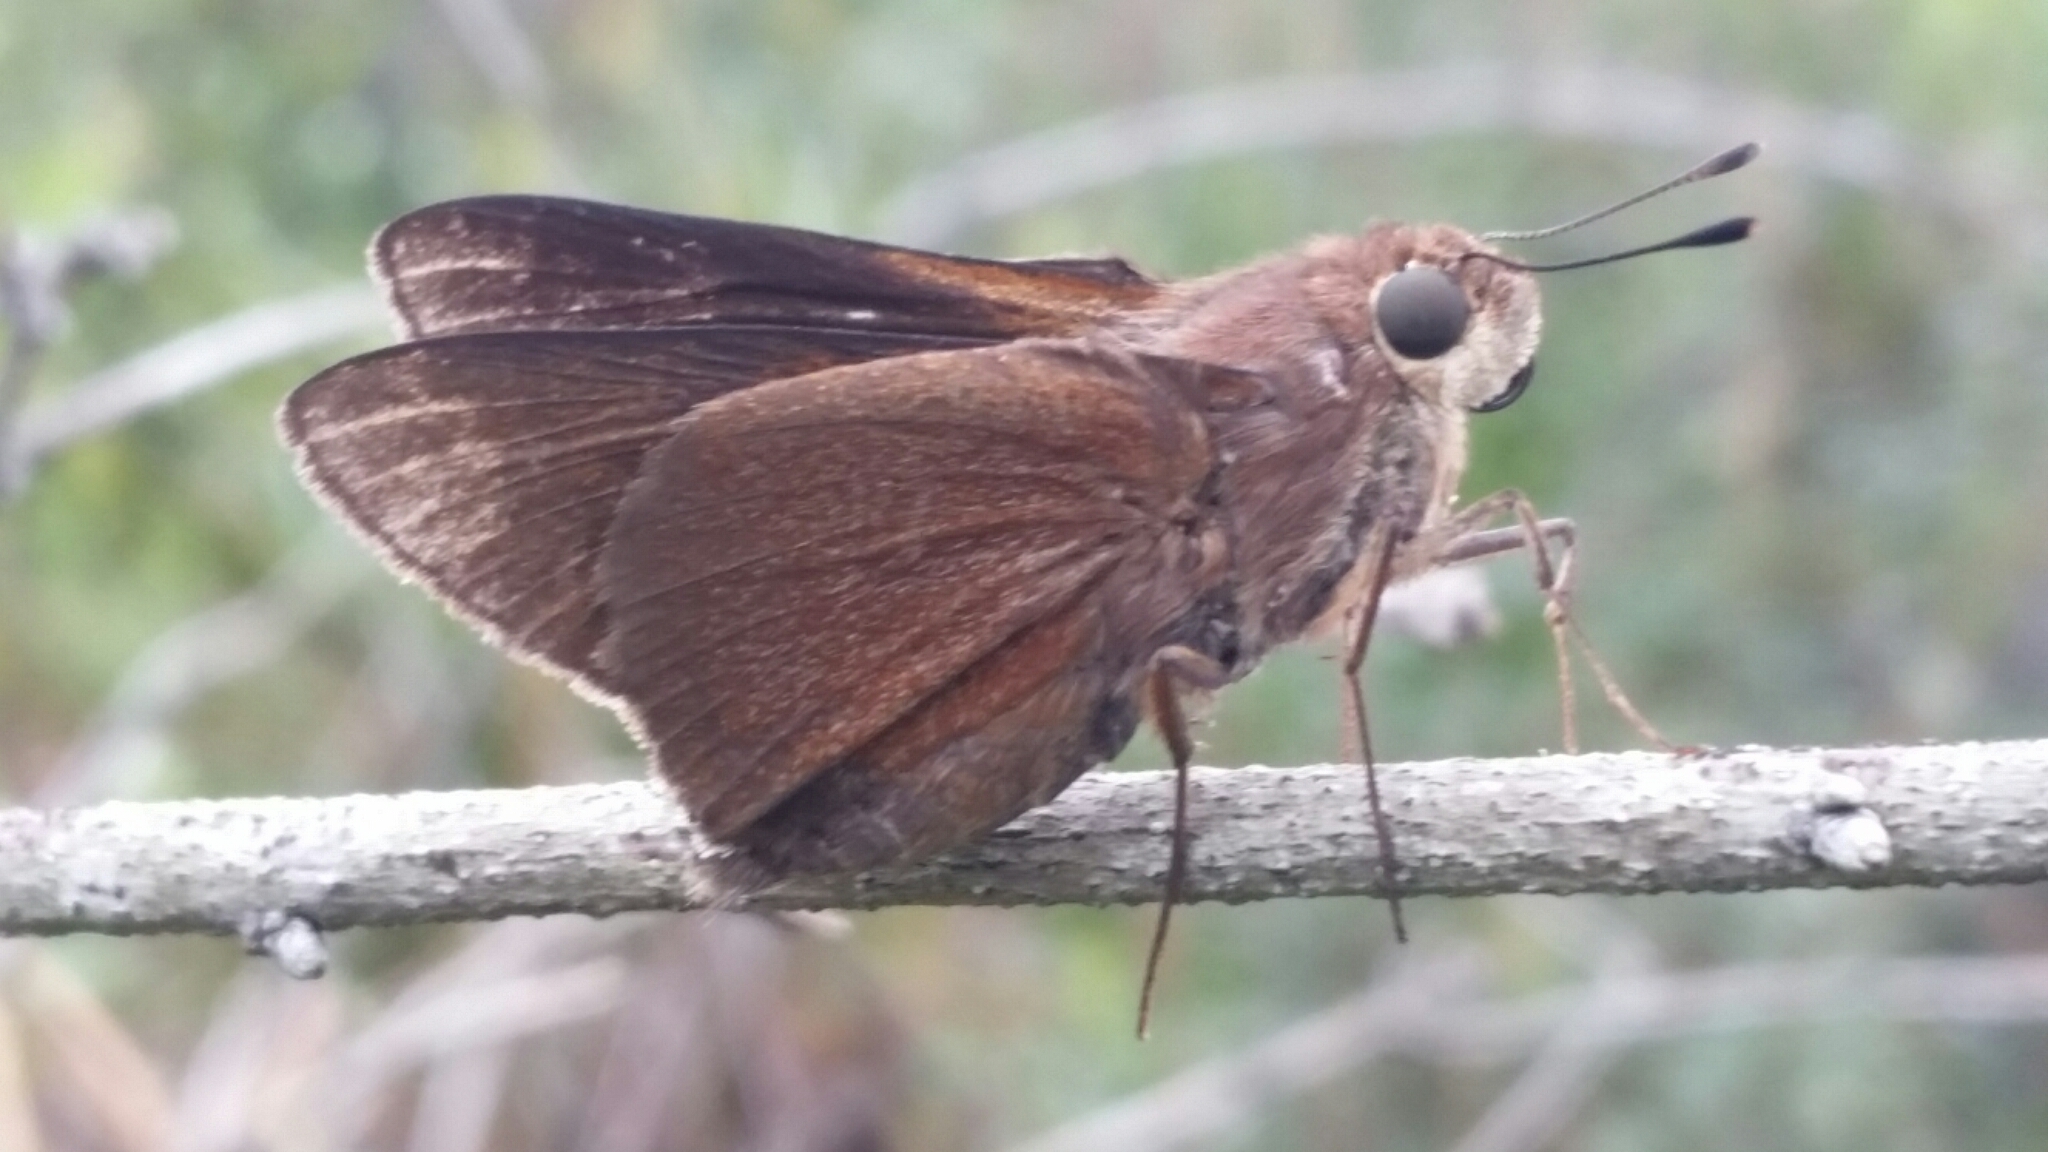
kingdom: Animalia
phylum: Arthropoda
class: Insecta
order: Lepidoptera
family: Hesperiidae
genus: Asbolis
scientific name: Asbolis capucinus
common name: Monk skipper
